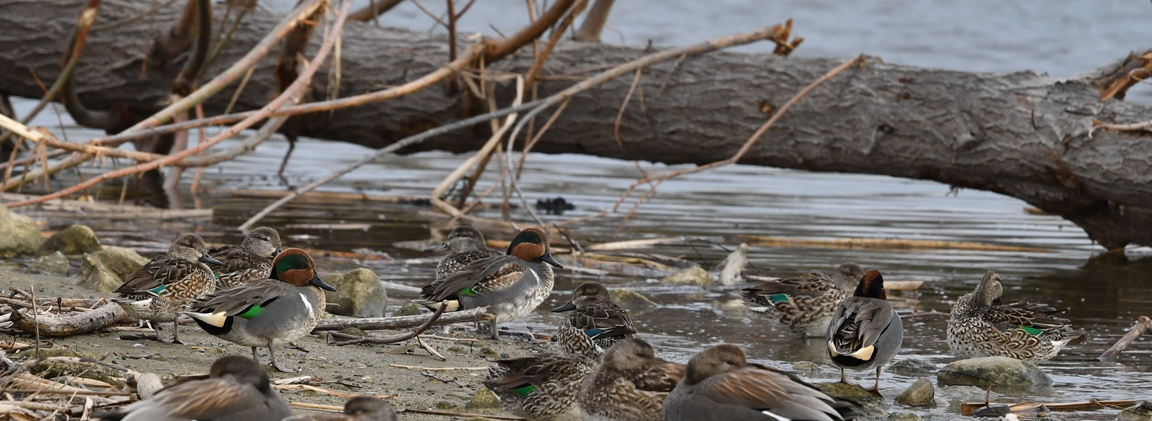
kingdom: Animalia
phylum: Chordata
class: Aves
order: Anseriformes
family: Anatidae
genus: Anas
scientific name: Anas crecca
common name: Eurasian teal
